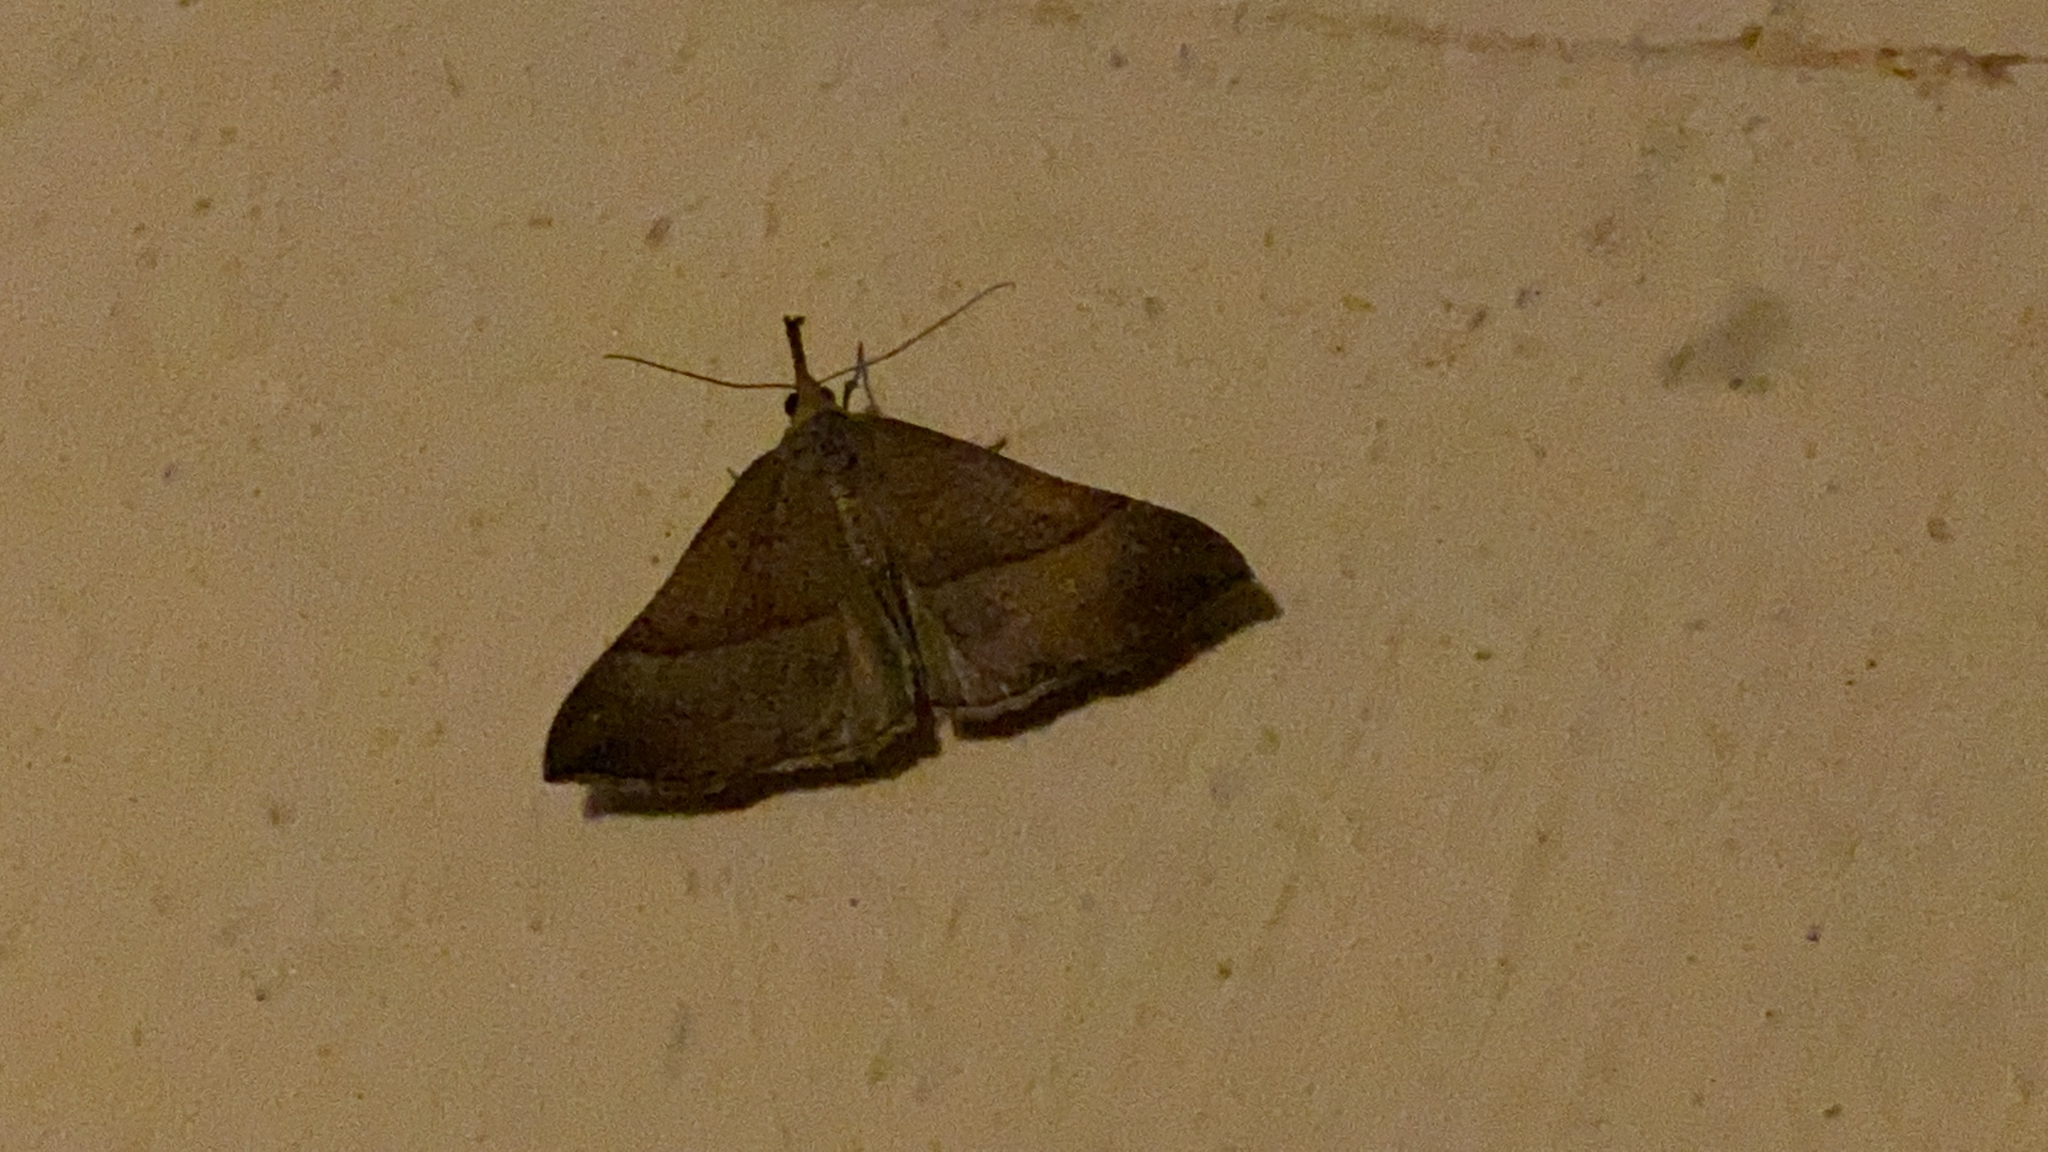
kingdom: Animalia
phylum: Arthropoda
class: Insecta
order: Lepidoptera
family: Erebidae
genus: Hypena
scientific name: Hypena proboscidalis
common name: Snout
